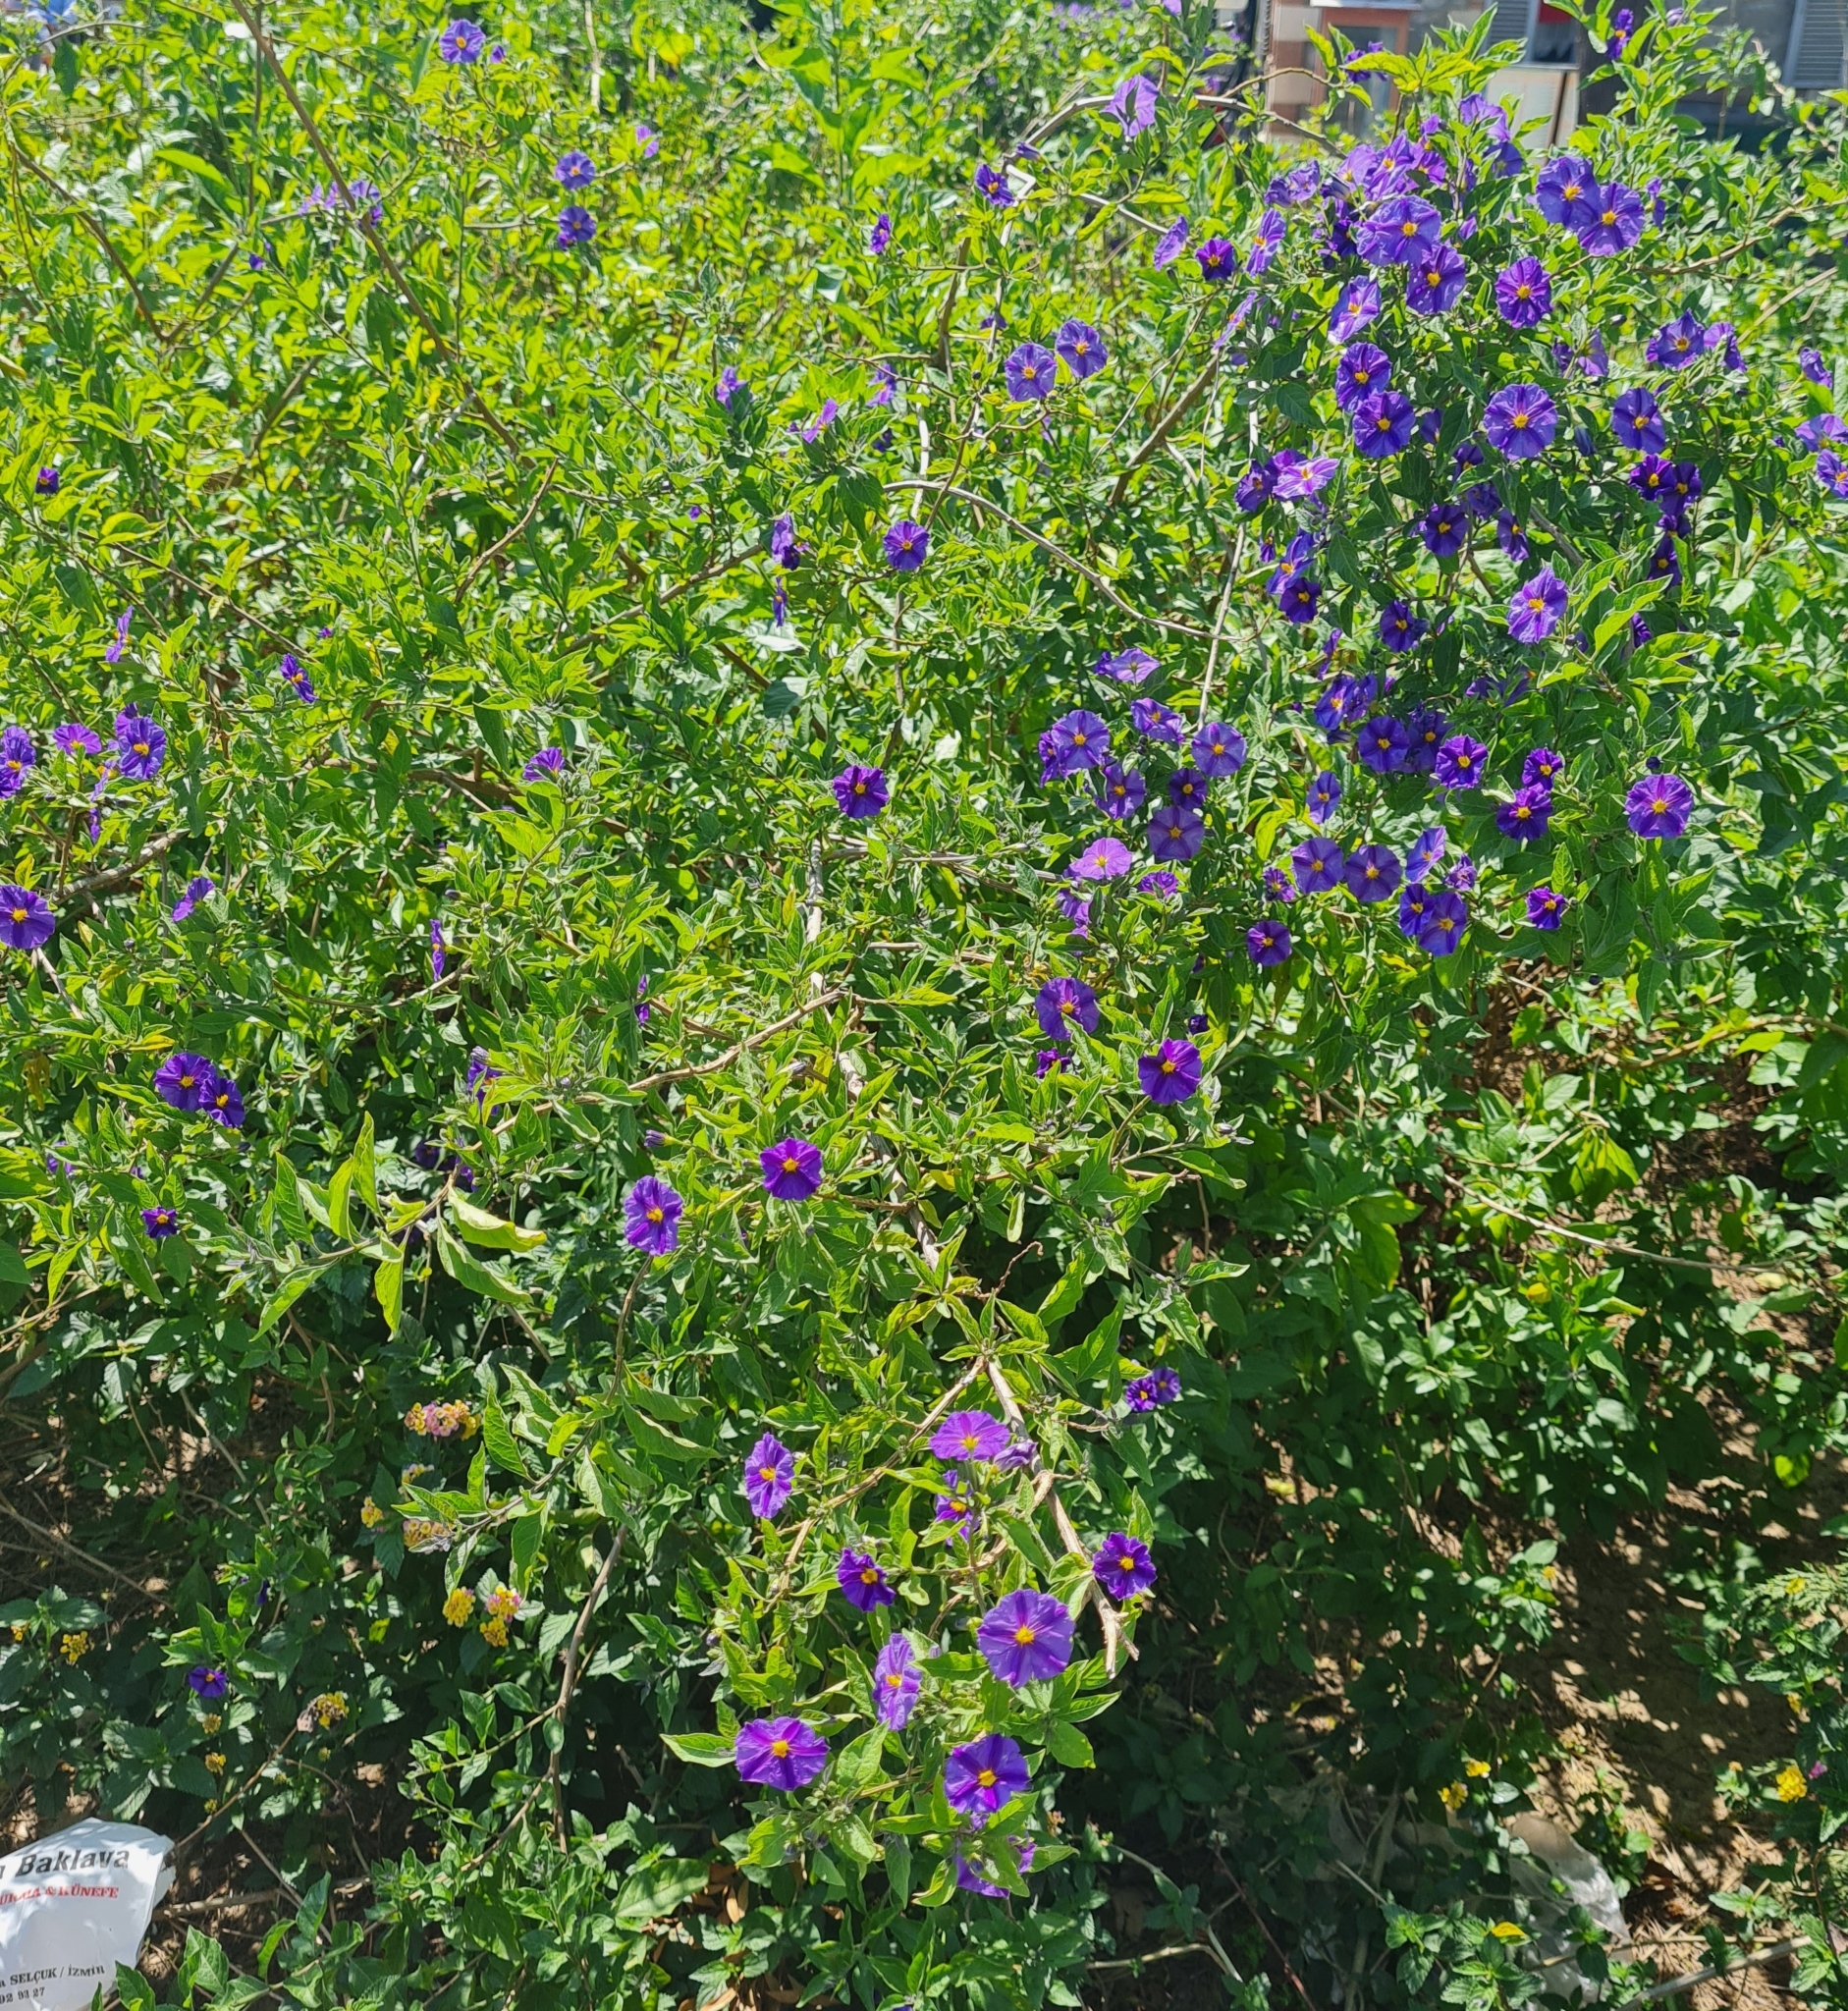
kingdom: Plantae
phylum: Tracheophyta
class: Magnoliopsida
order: Solanales
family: Solanaceae
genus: Lycianthes
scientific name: Lycianthes rantonnetii
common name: Blue potatobush
